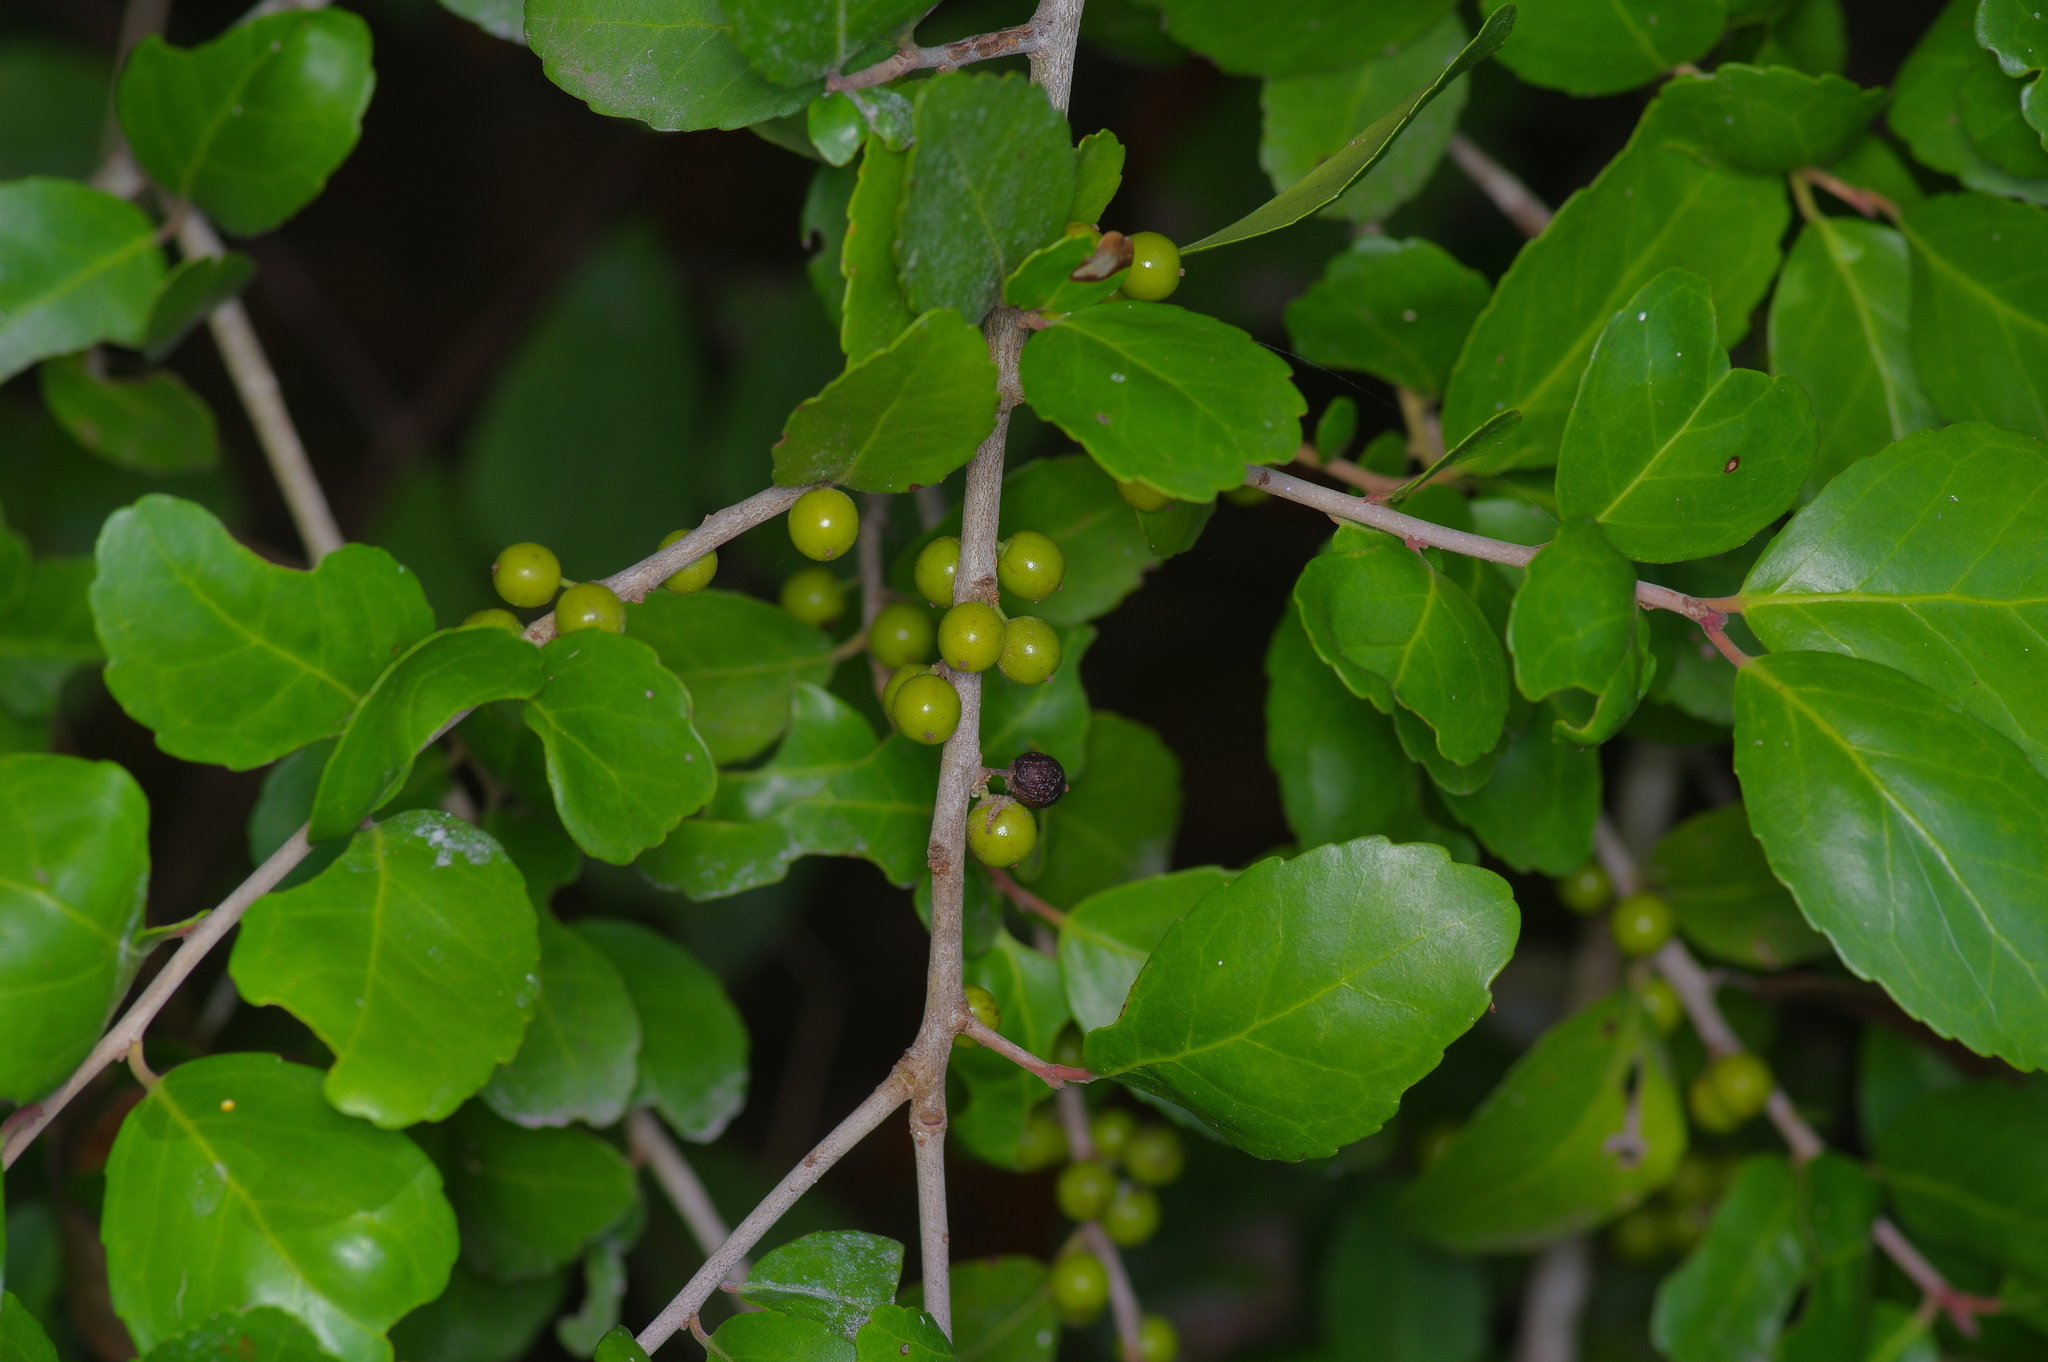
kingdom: Plantae
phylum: Tracheophyta
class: Magnoliopsida
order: Aquifoliales
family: Aquifoliaceae
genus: Ilex
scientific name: Ilex vomitoria
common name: Yaupon holly
